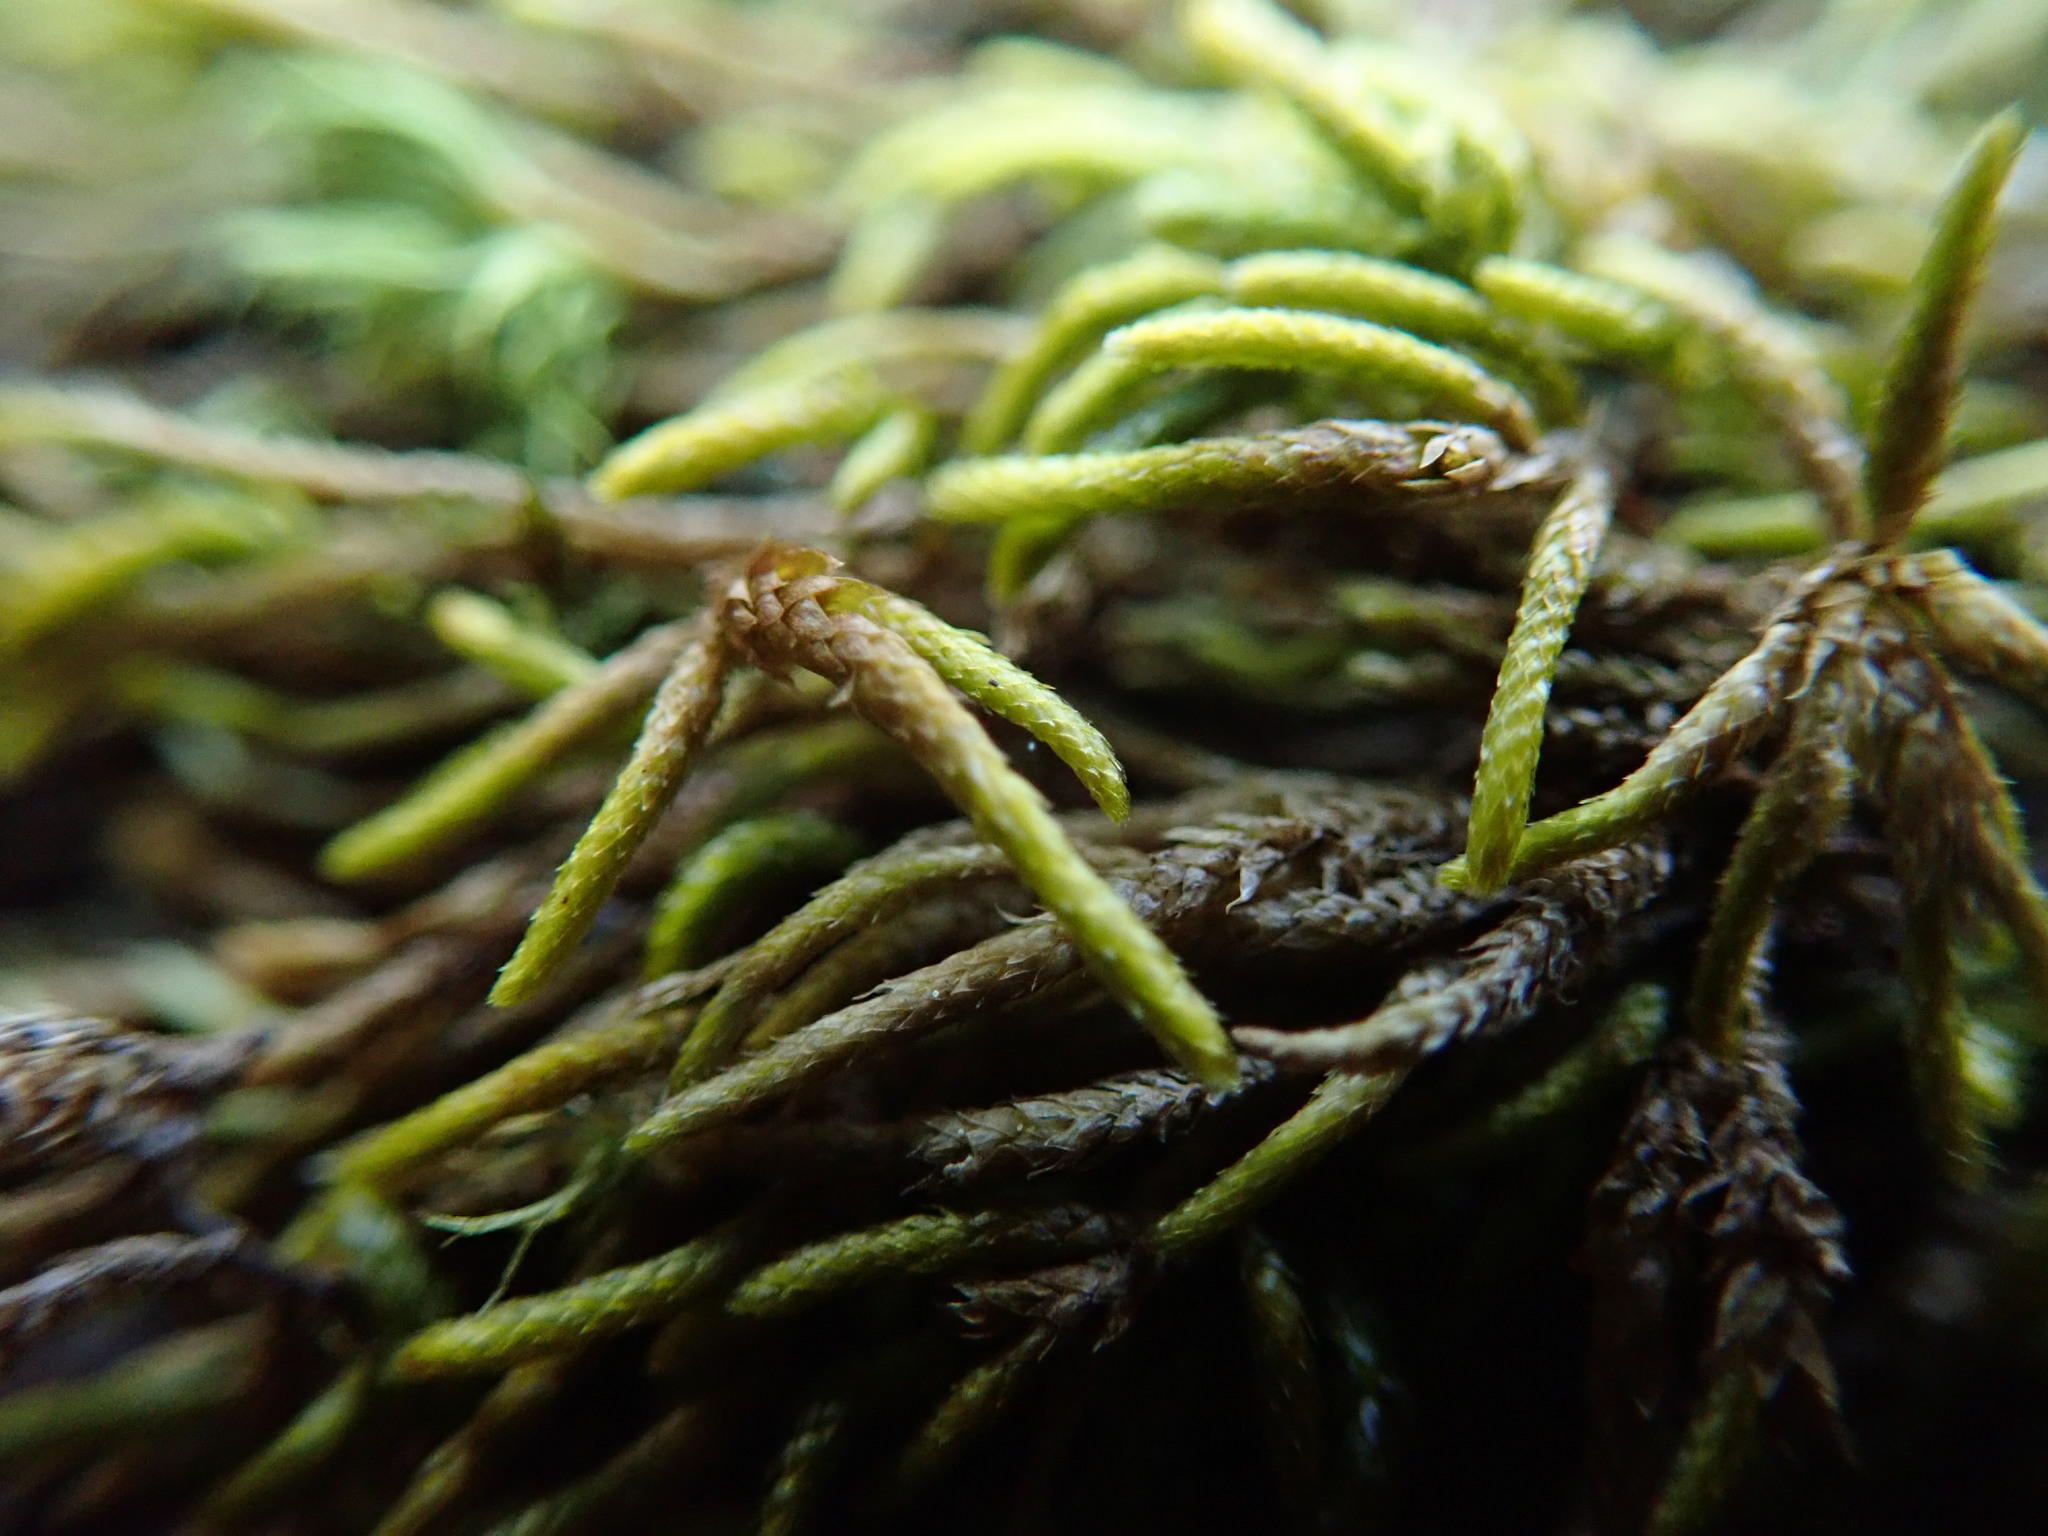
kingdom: Plantae
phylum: Bryophyta
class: Bryopsida
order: Hypnales
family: Lembophyllaceae
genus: Pseudisothecium
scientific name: Pseudisothecium cristatum
